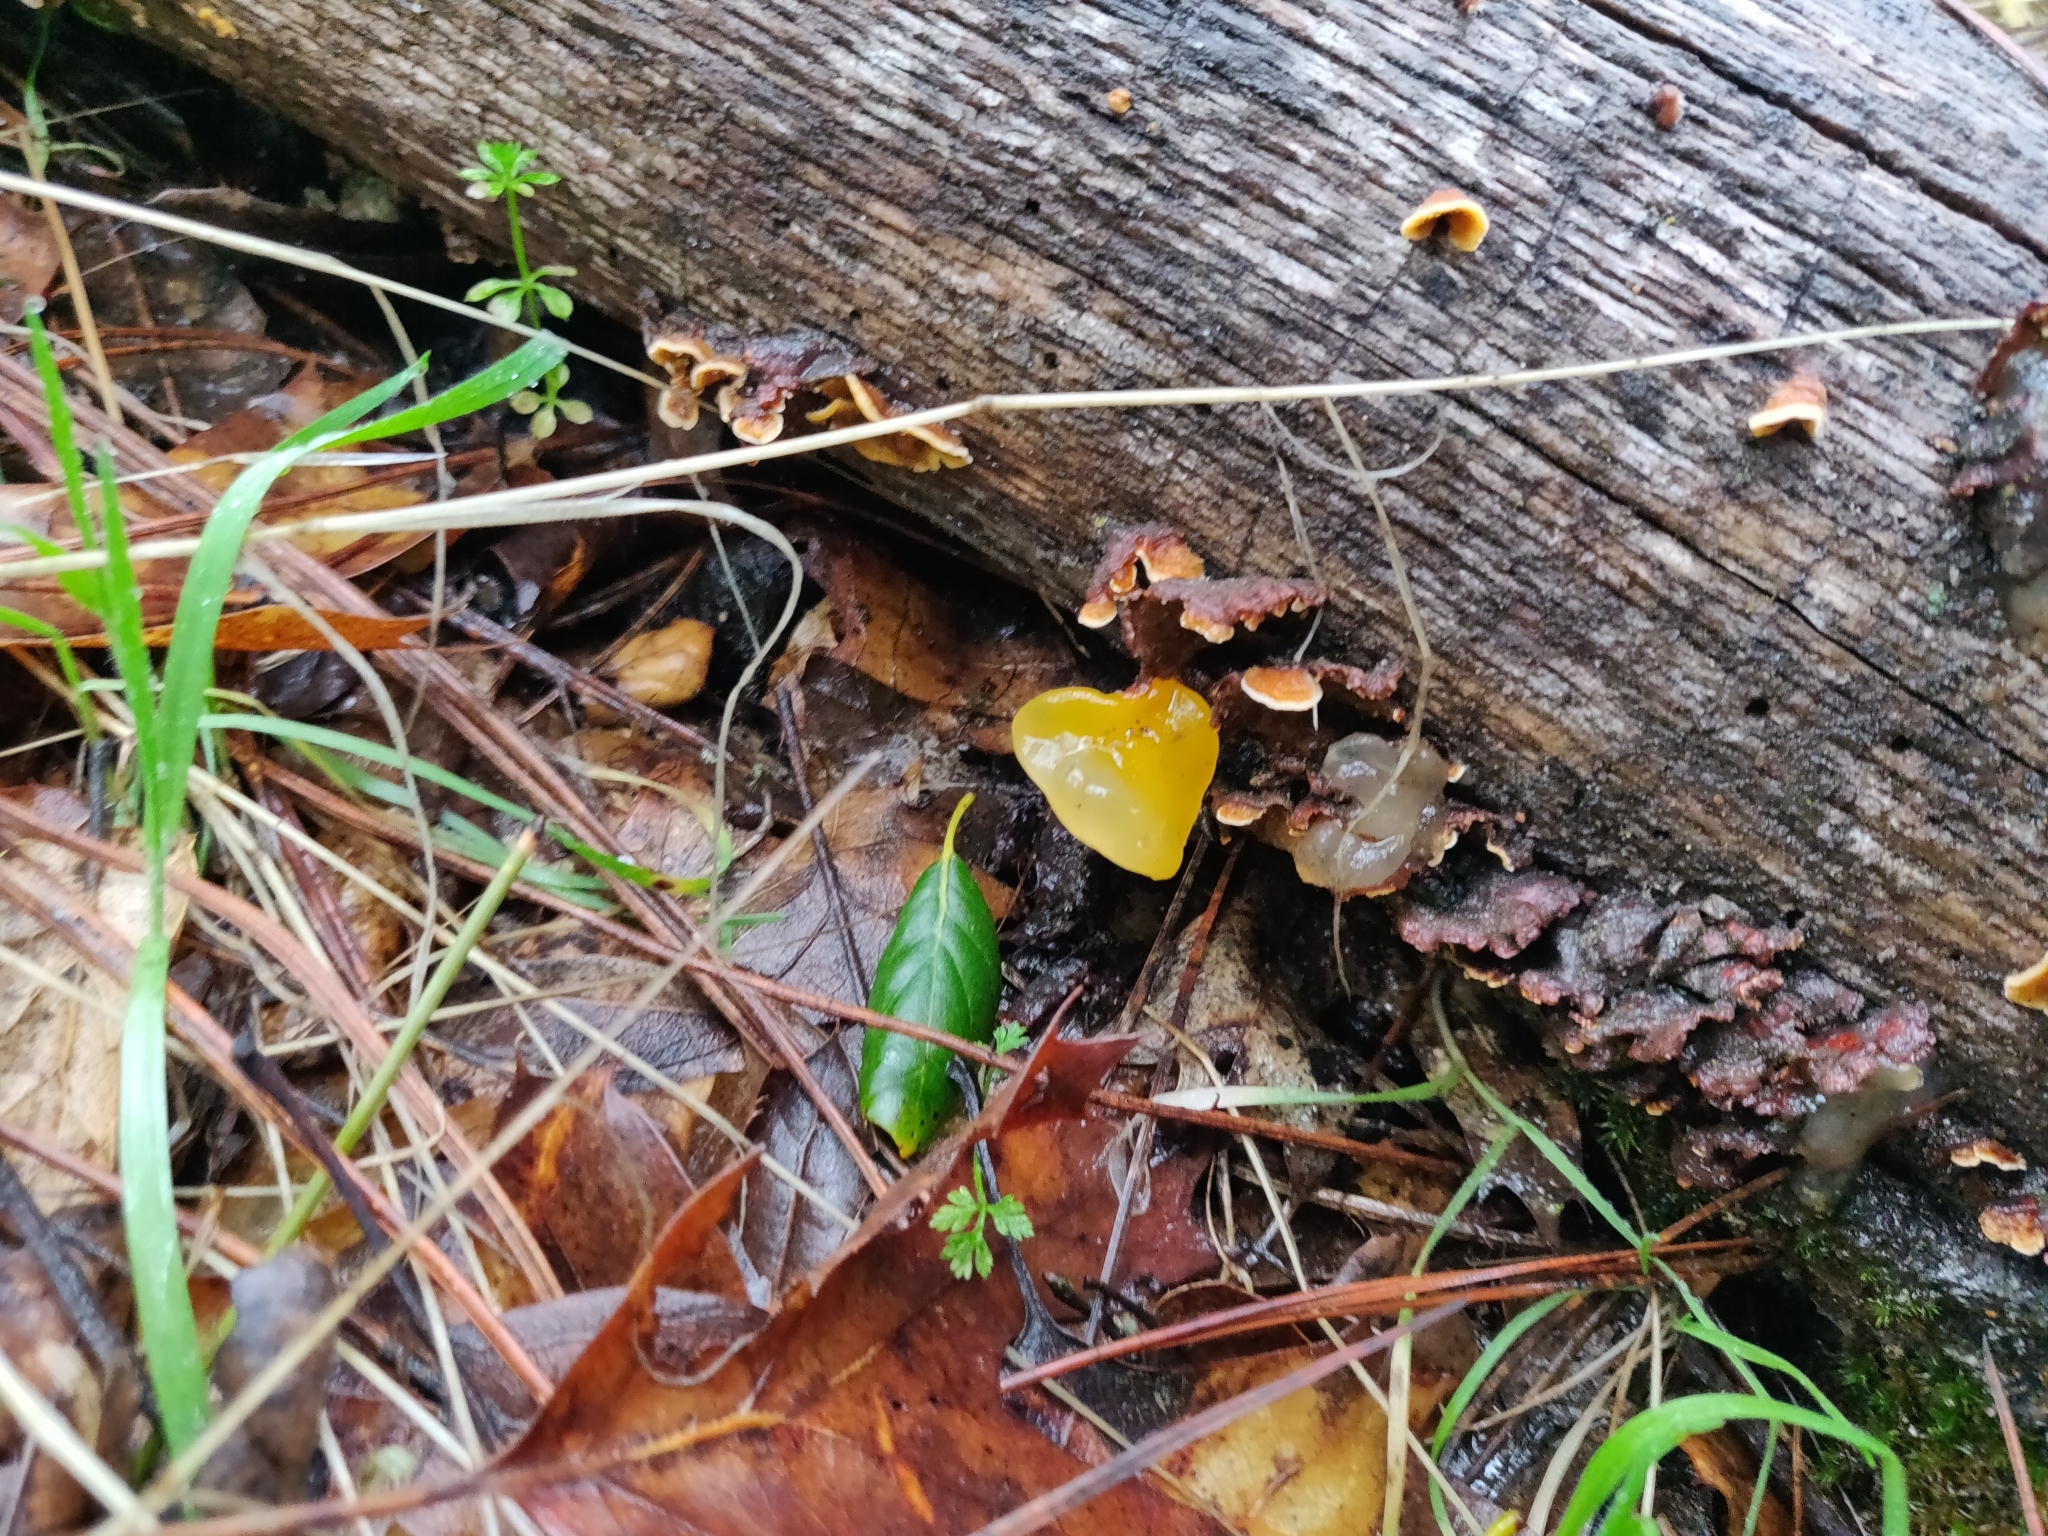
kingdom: Fungi
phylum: Basidiomycota
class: Tremellomycetes
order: Tremellales
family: Naemateliaceae
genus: Naematelia
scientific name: Naematelia aurantia
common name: Golden ear
